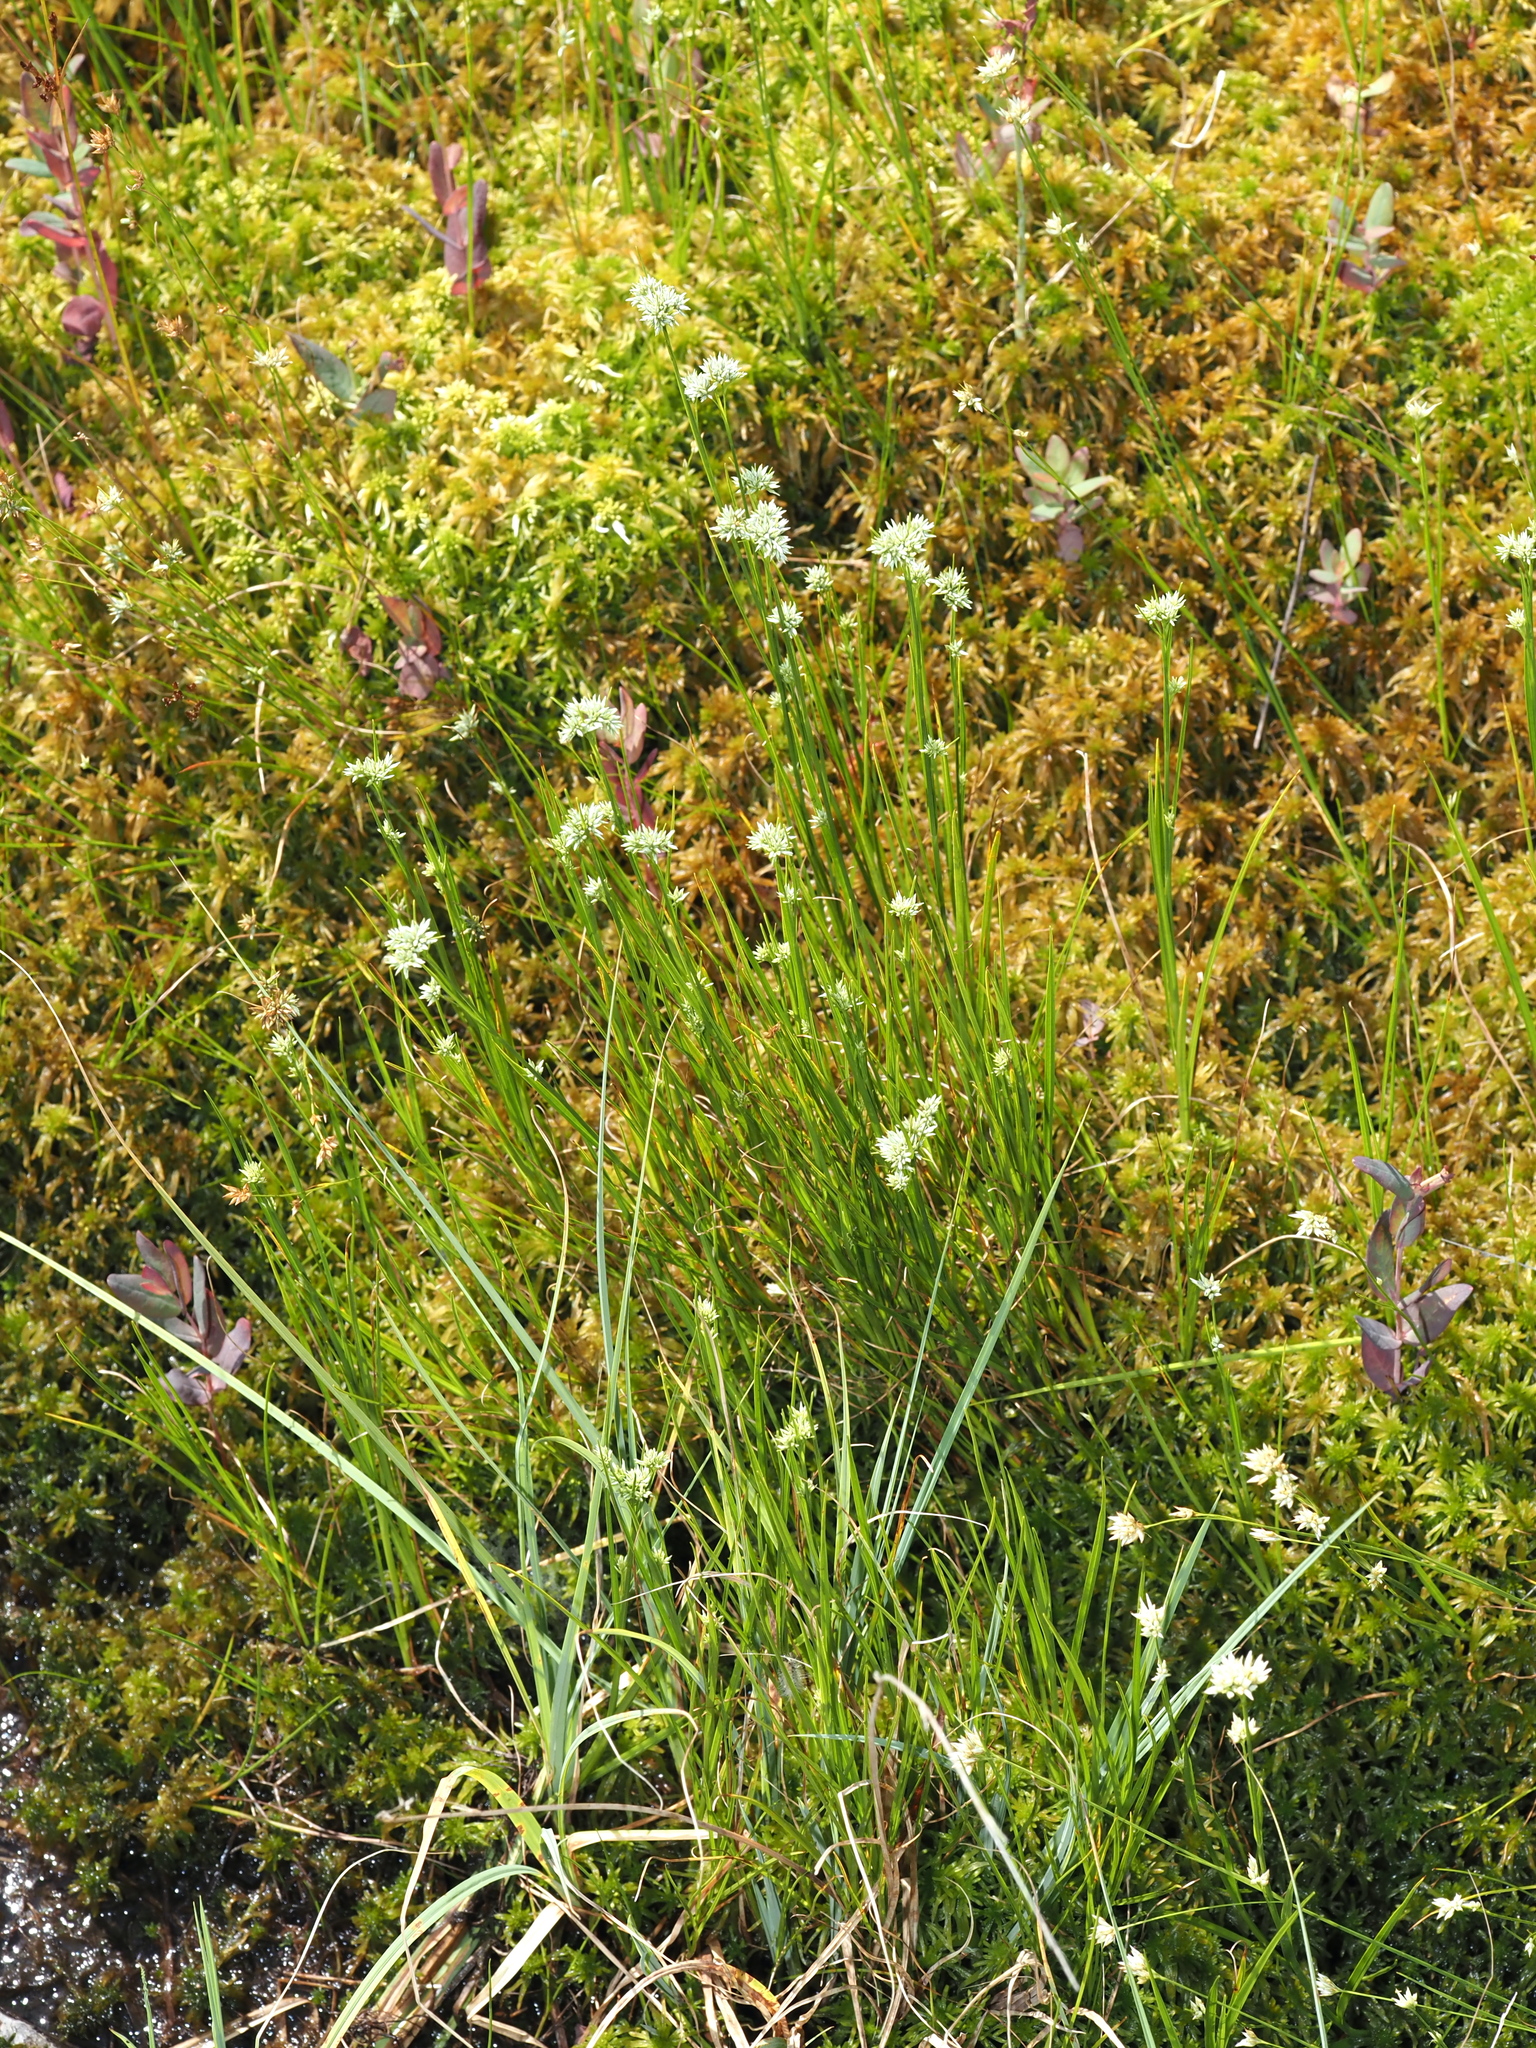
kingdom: Plantae
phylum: Tracheophyta
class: Liliopsida
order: Poales
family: Cyperaceae
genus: Rhynchospora
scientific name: Rhynchospora alba
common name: White beak-sedge
